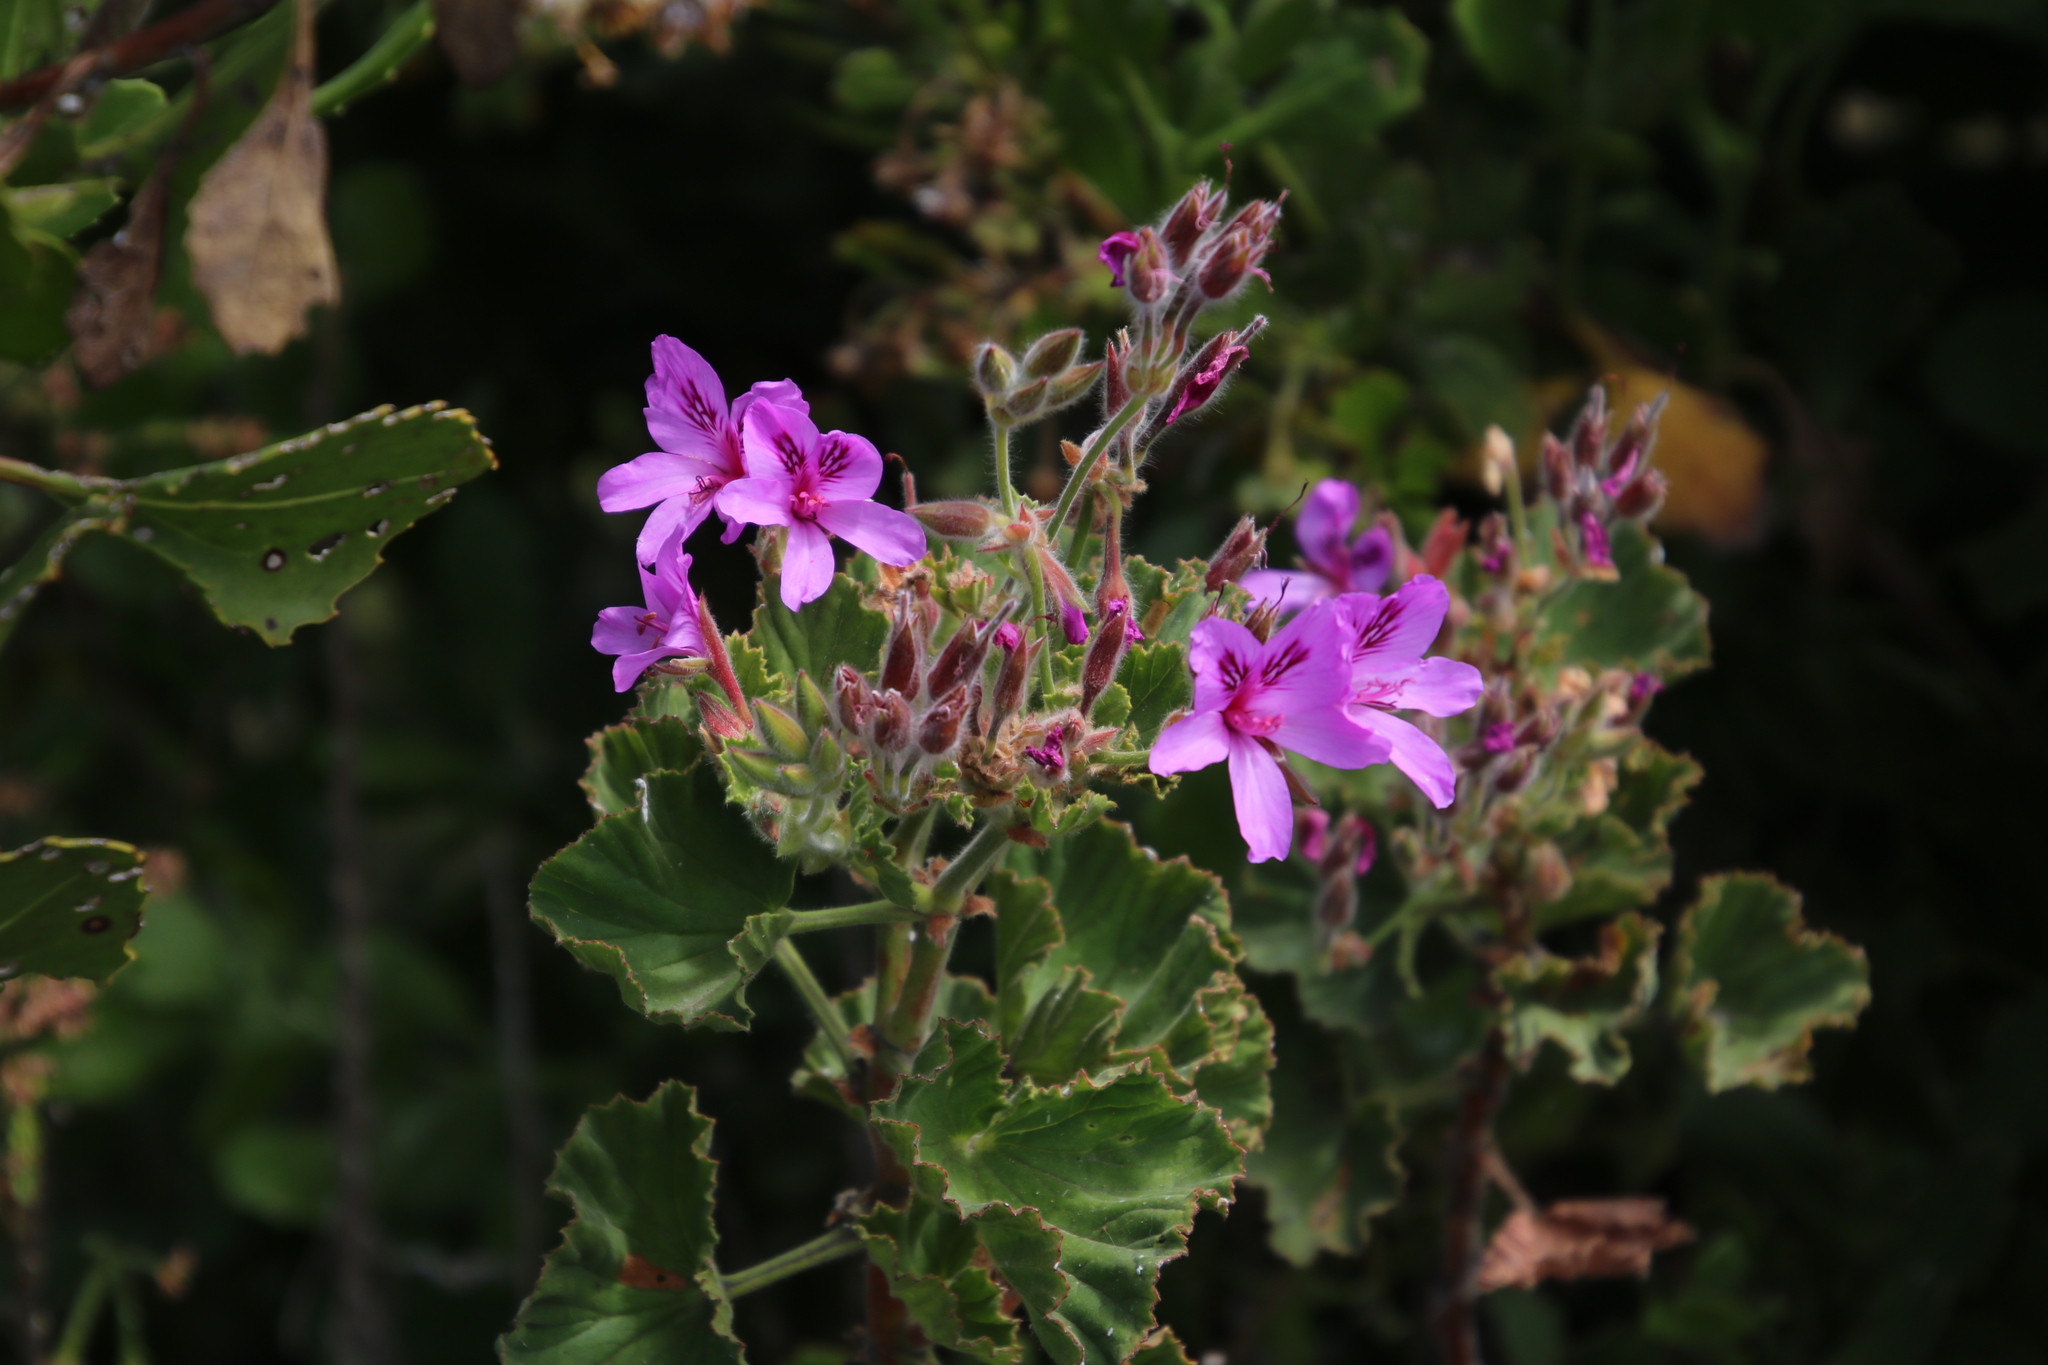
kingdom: Plantae
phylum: Tracheophyta
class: Magnoliopsida
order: Geraniales
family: Geraniaceae
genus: Pelargonium
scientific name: Pelargonium cucullatum
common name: Tree pelargonium
